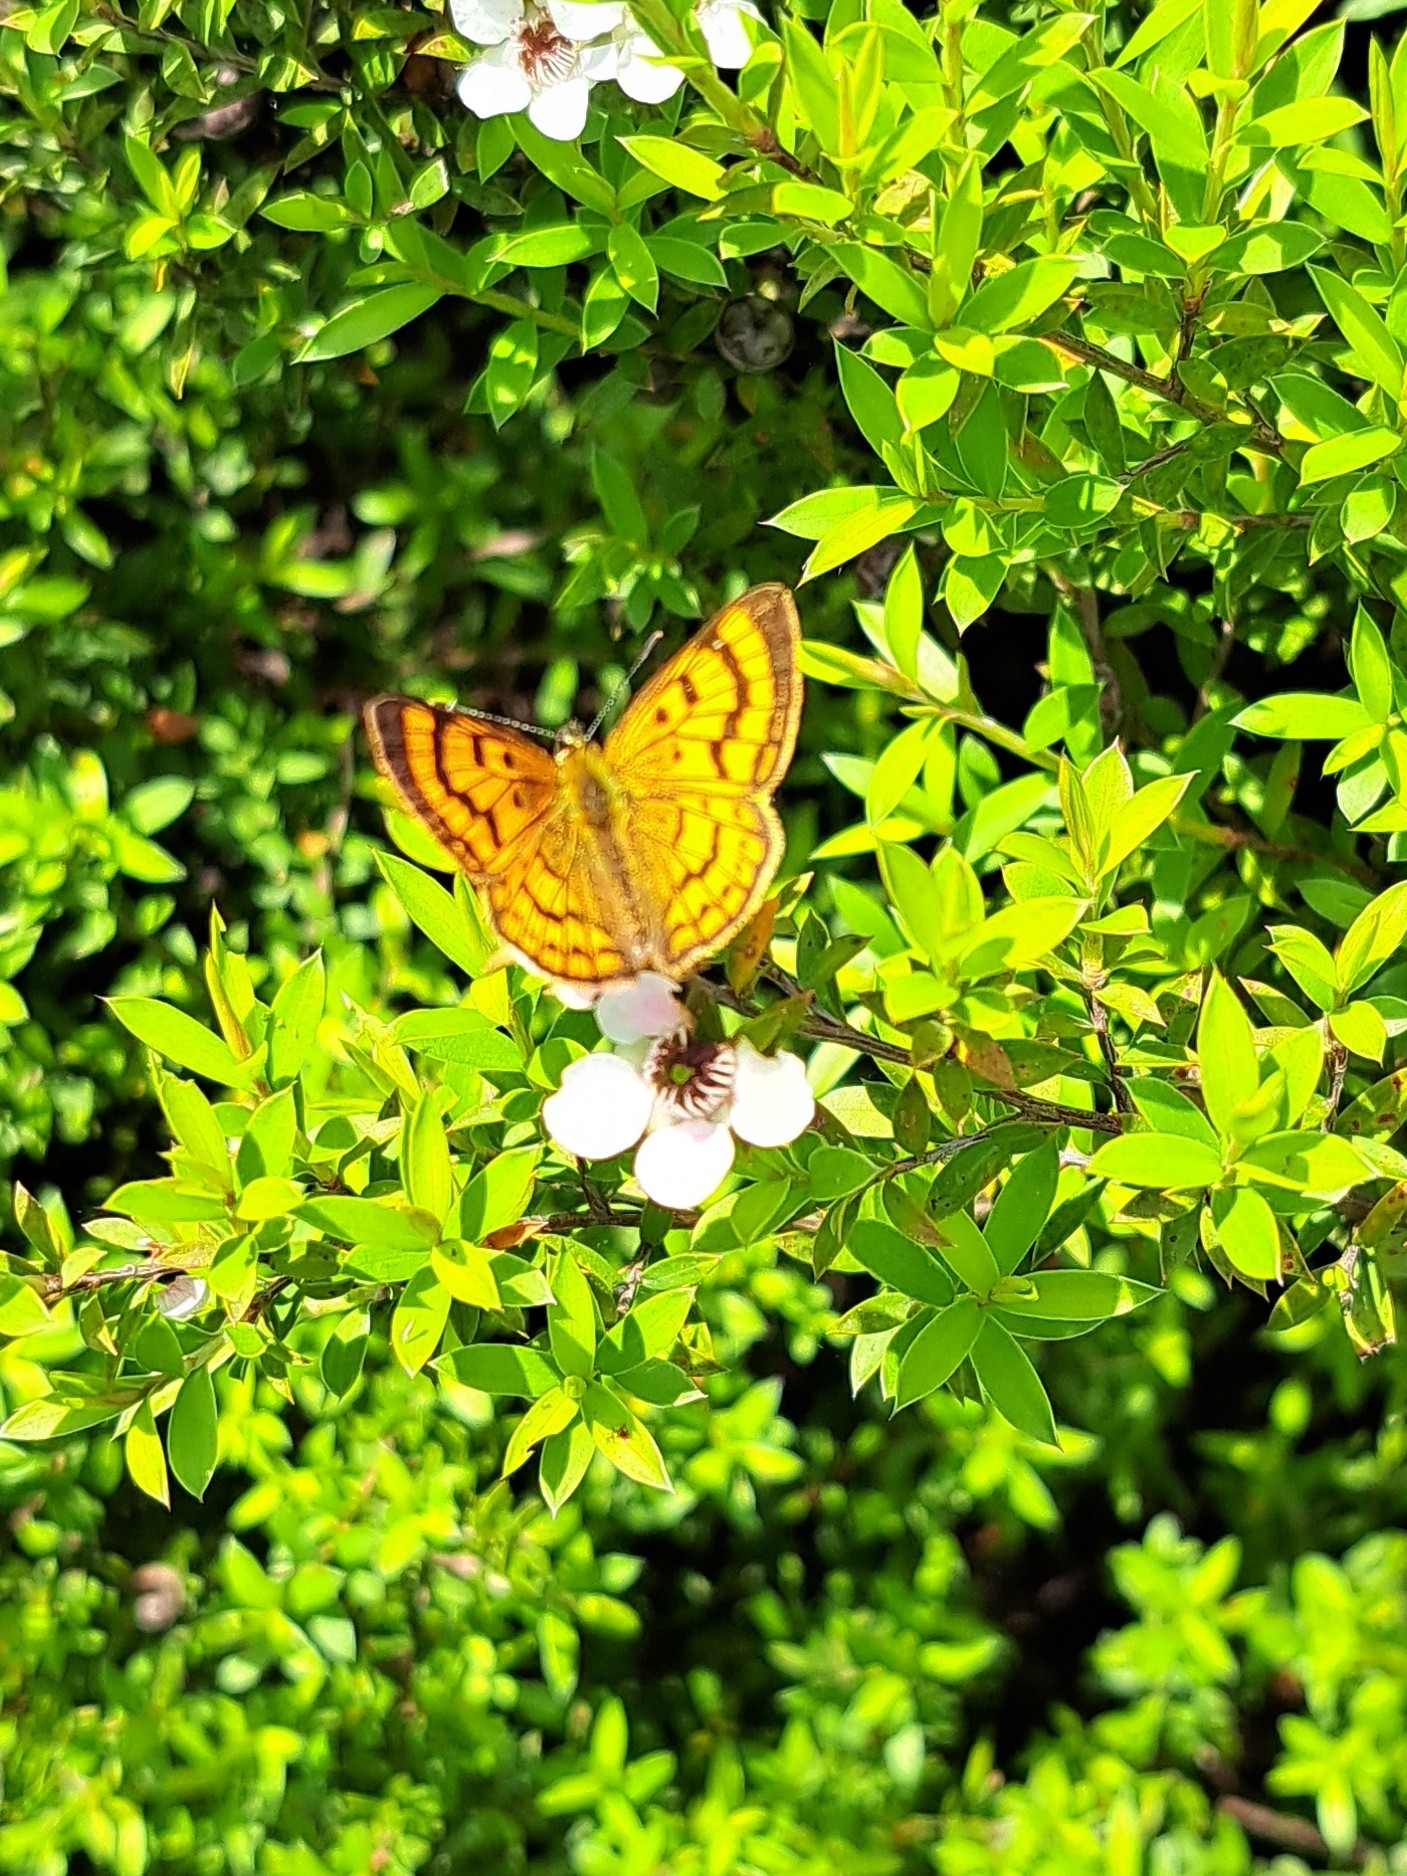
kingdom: Animalia
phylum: Arthropoda
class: Insecta
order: Lepidoptera
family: Lycaenidae
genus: Lycaena
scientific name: Lycaena salustius
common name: North island coastal copper
